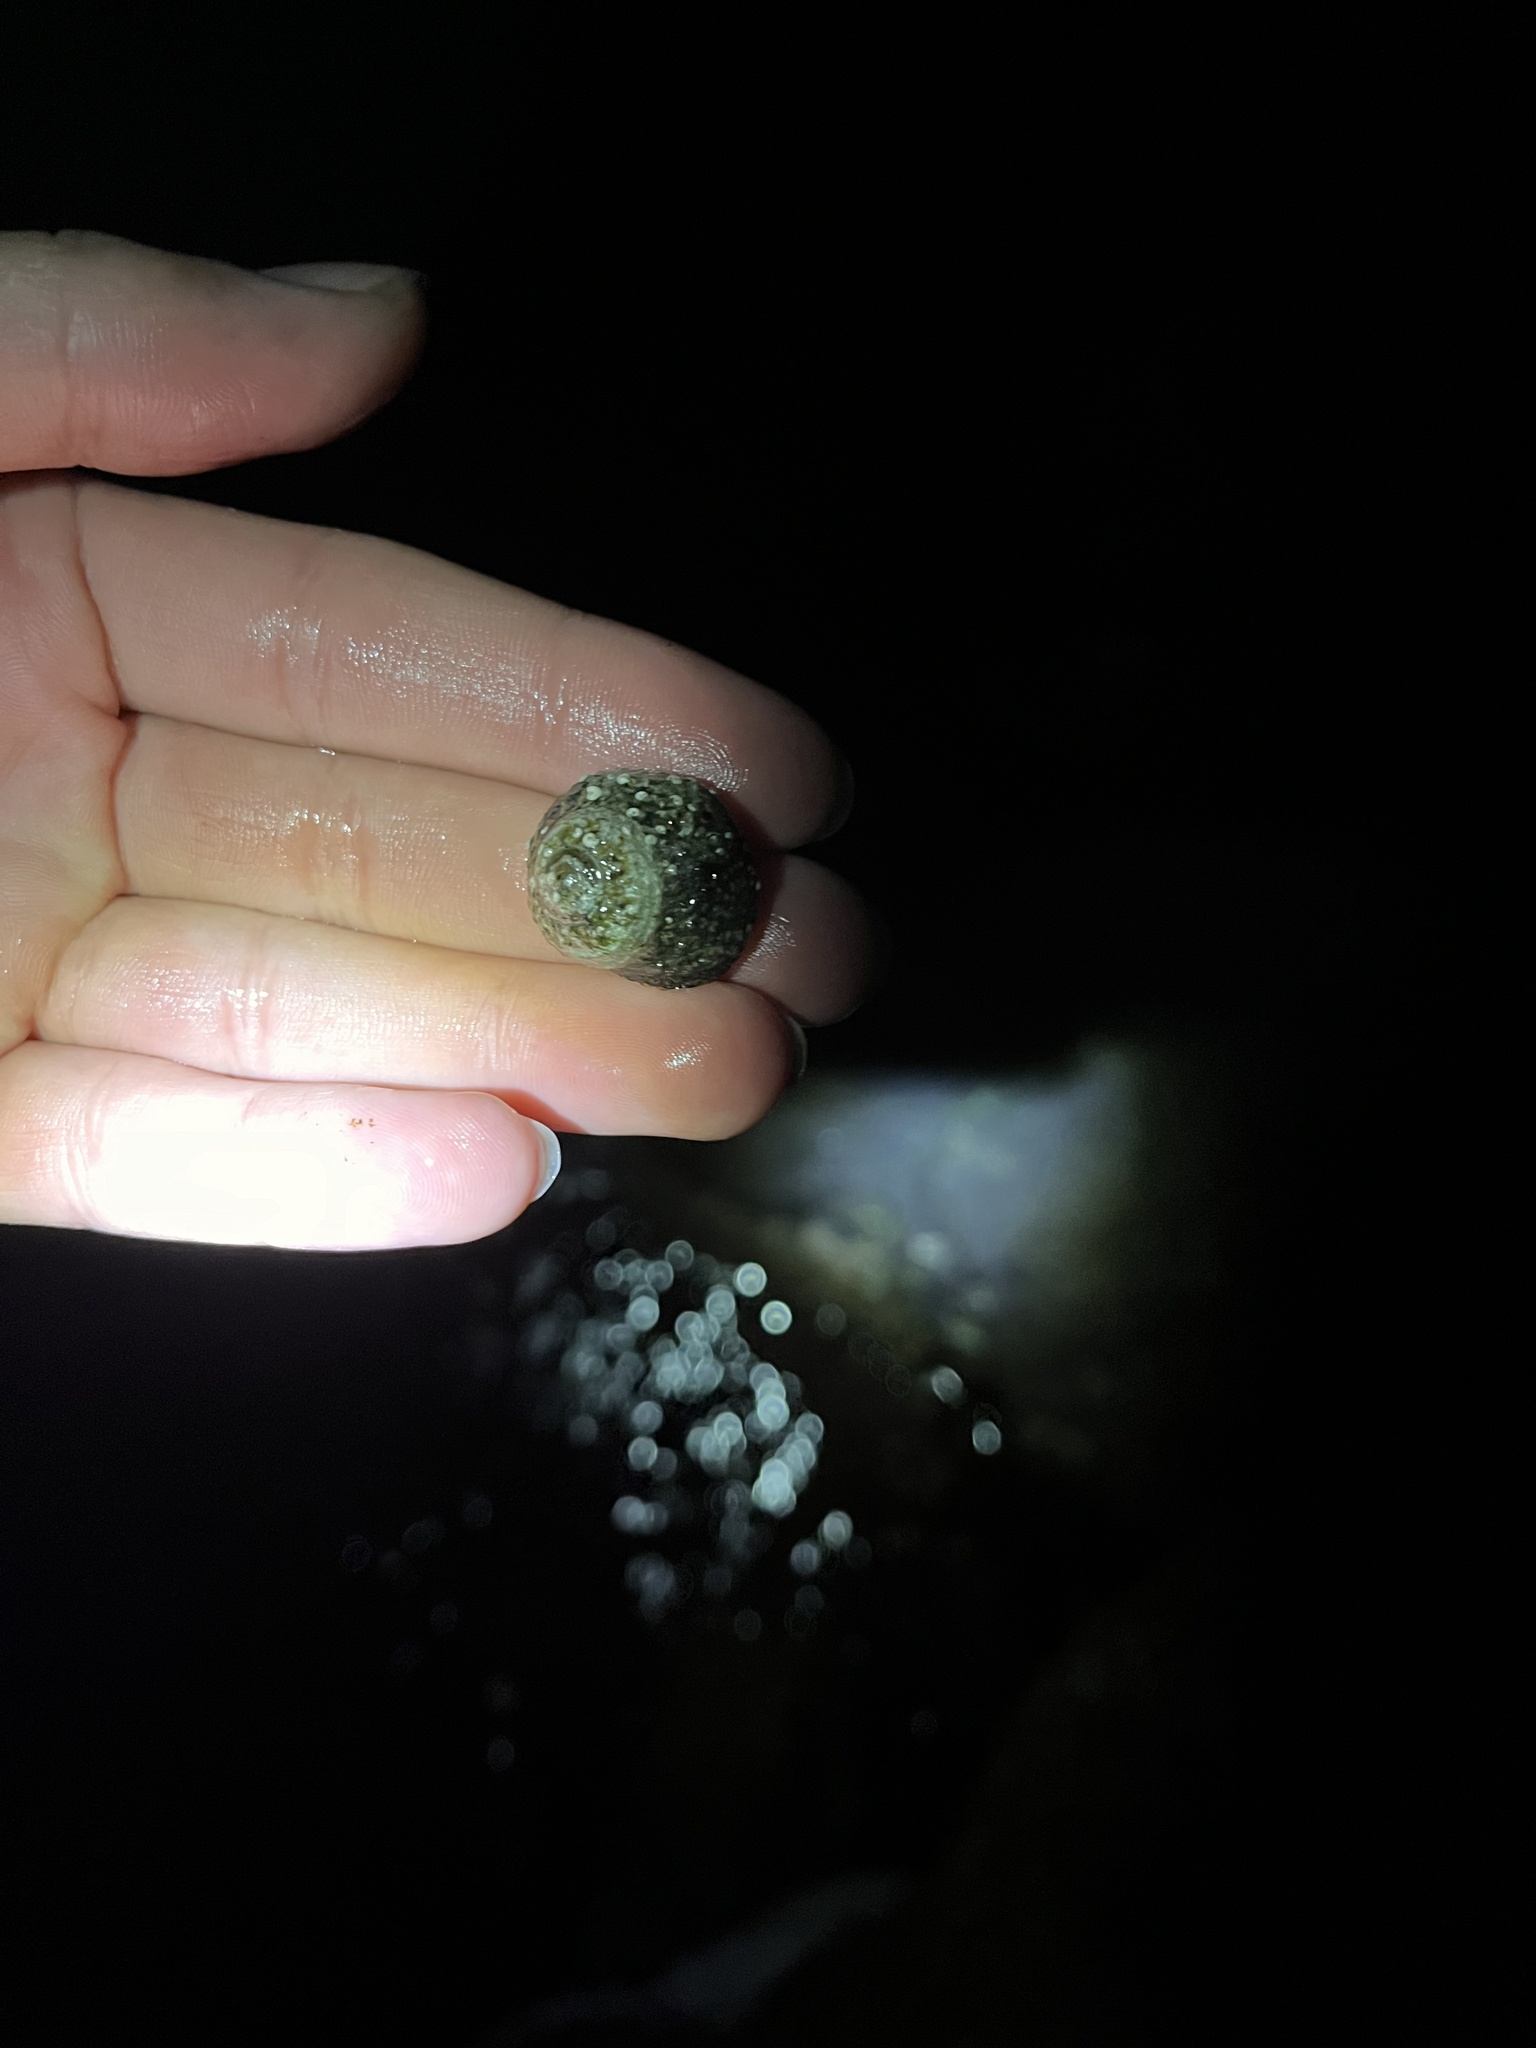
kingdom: Animalia
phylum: Mollusca
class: Gastropoda
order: Trochida
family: Tegulidae
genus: Tegula
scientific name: Tegula eiseni
